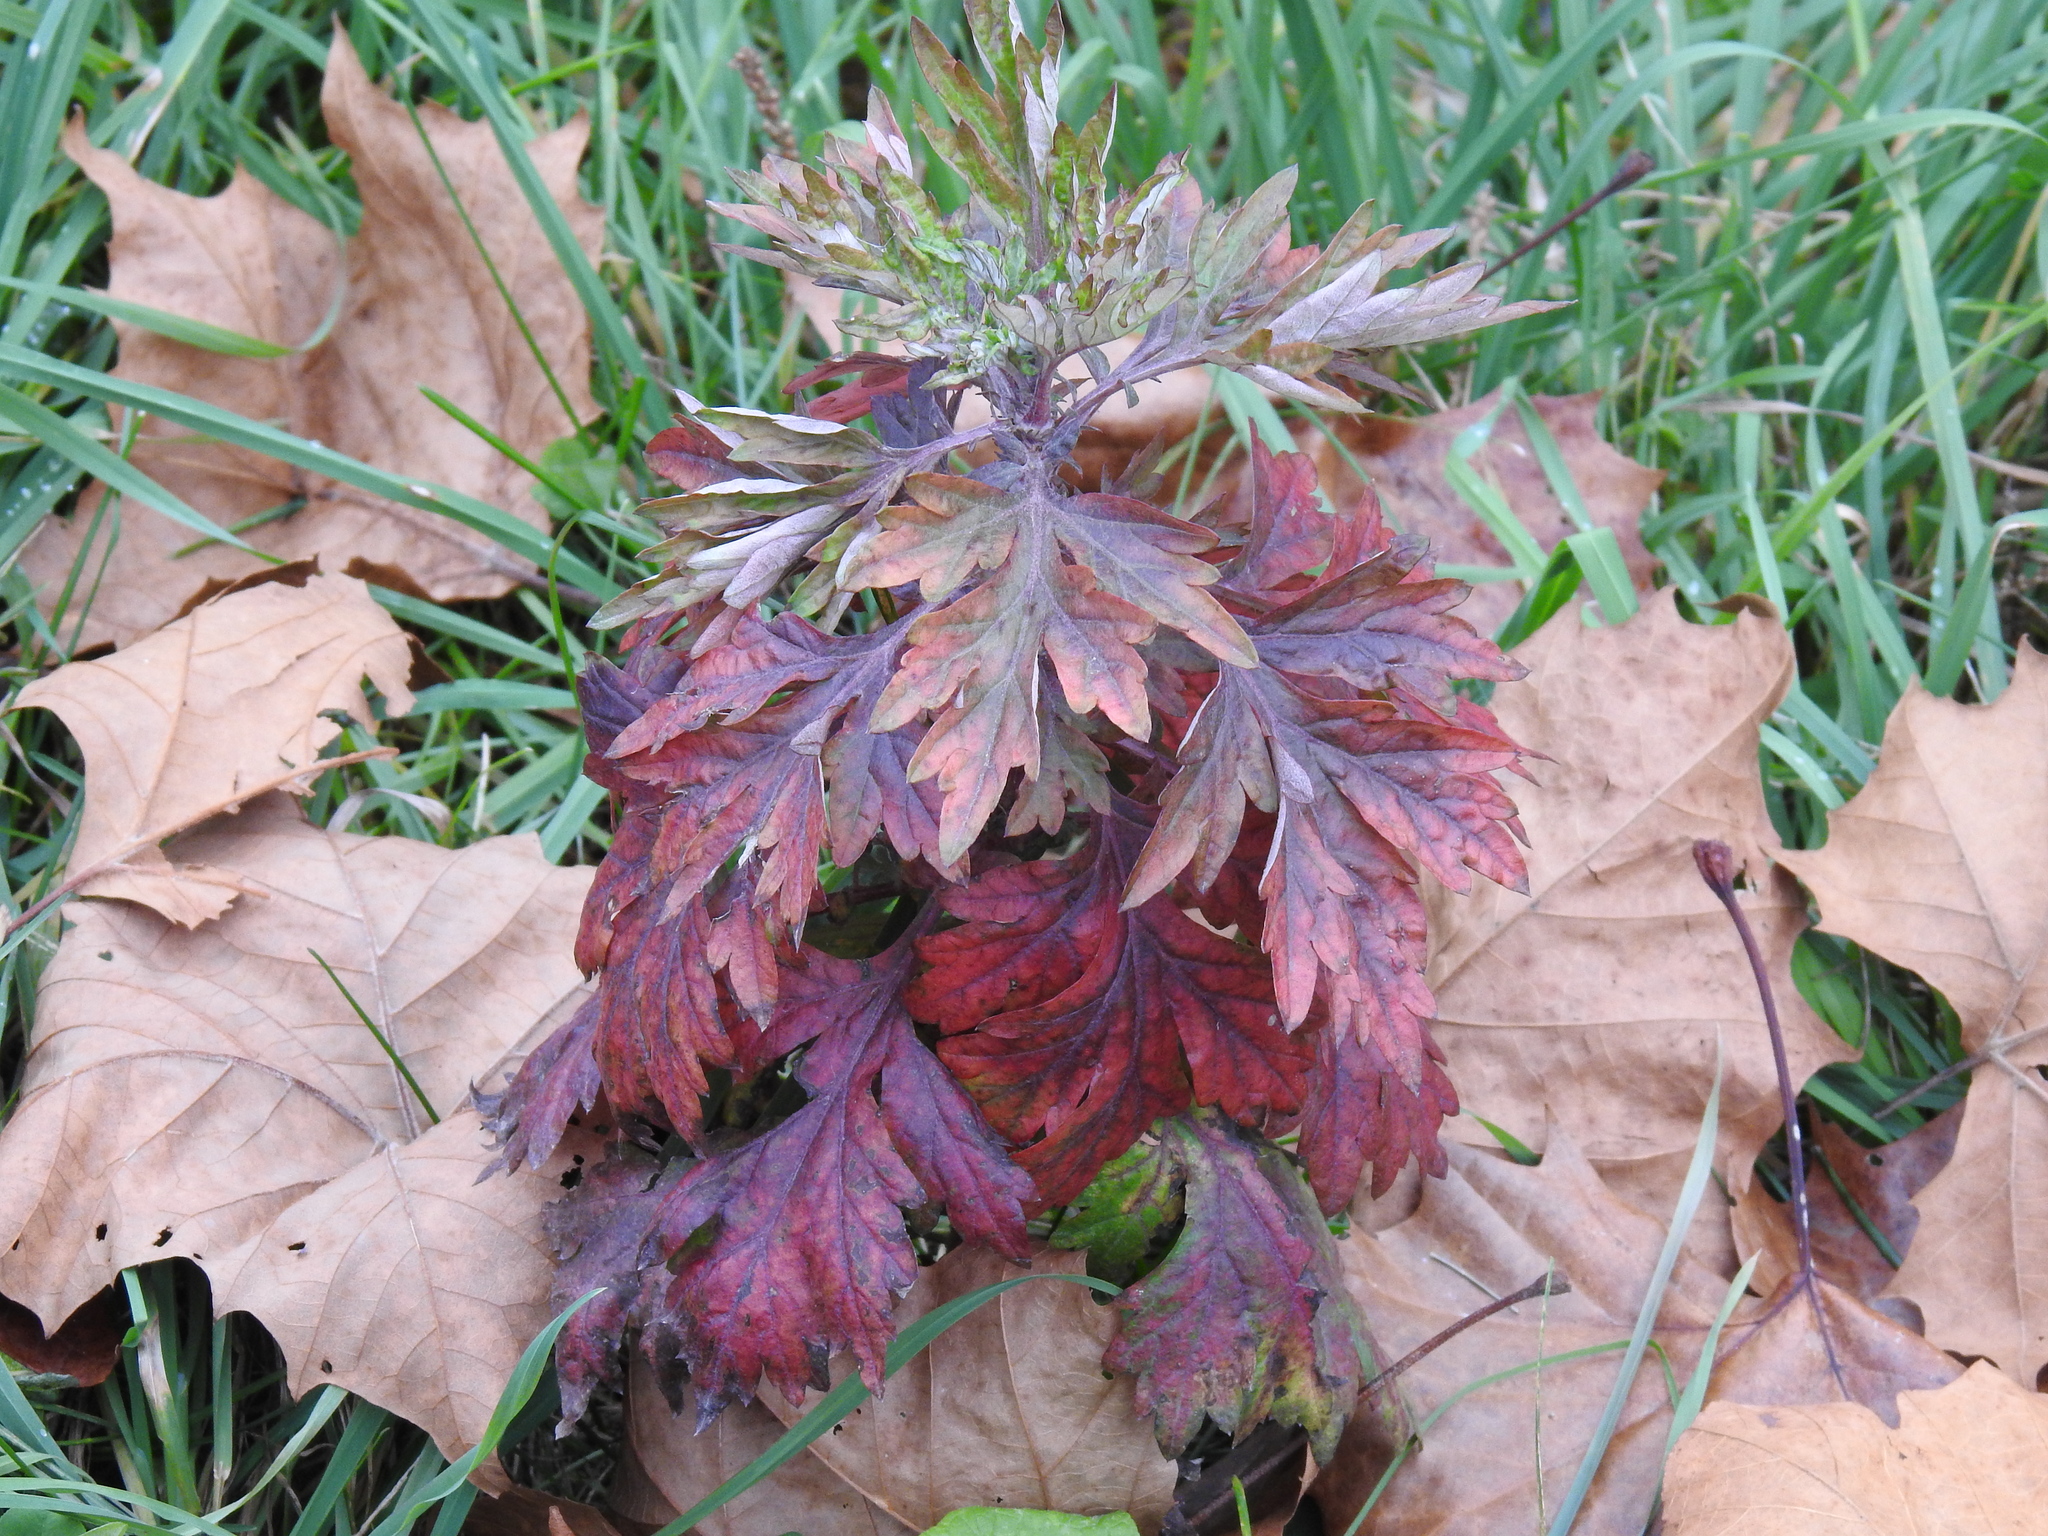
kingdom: Plantae
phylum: Tracheophyta
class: Magnoliopsida
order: Asterales
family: Asteraceae
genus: Artemisia
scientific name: Artemisia vulgaris
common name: Mugwort
